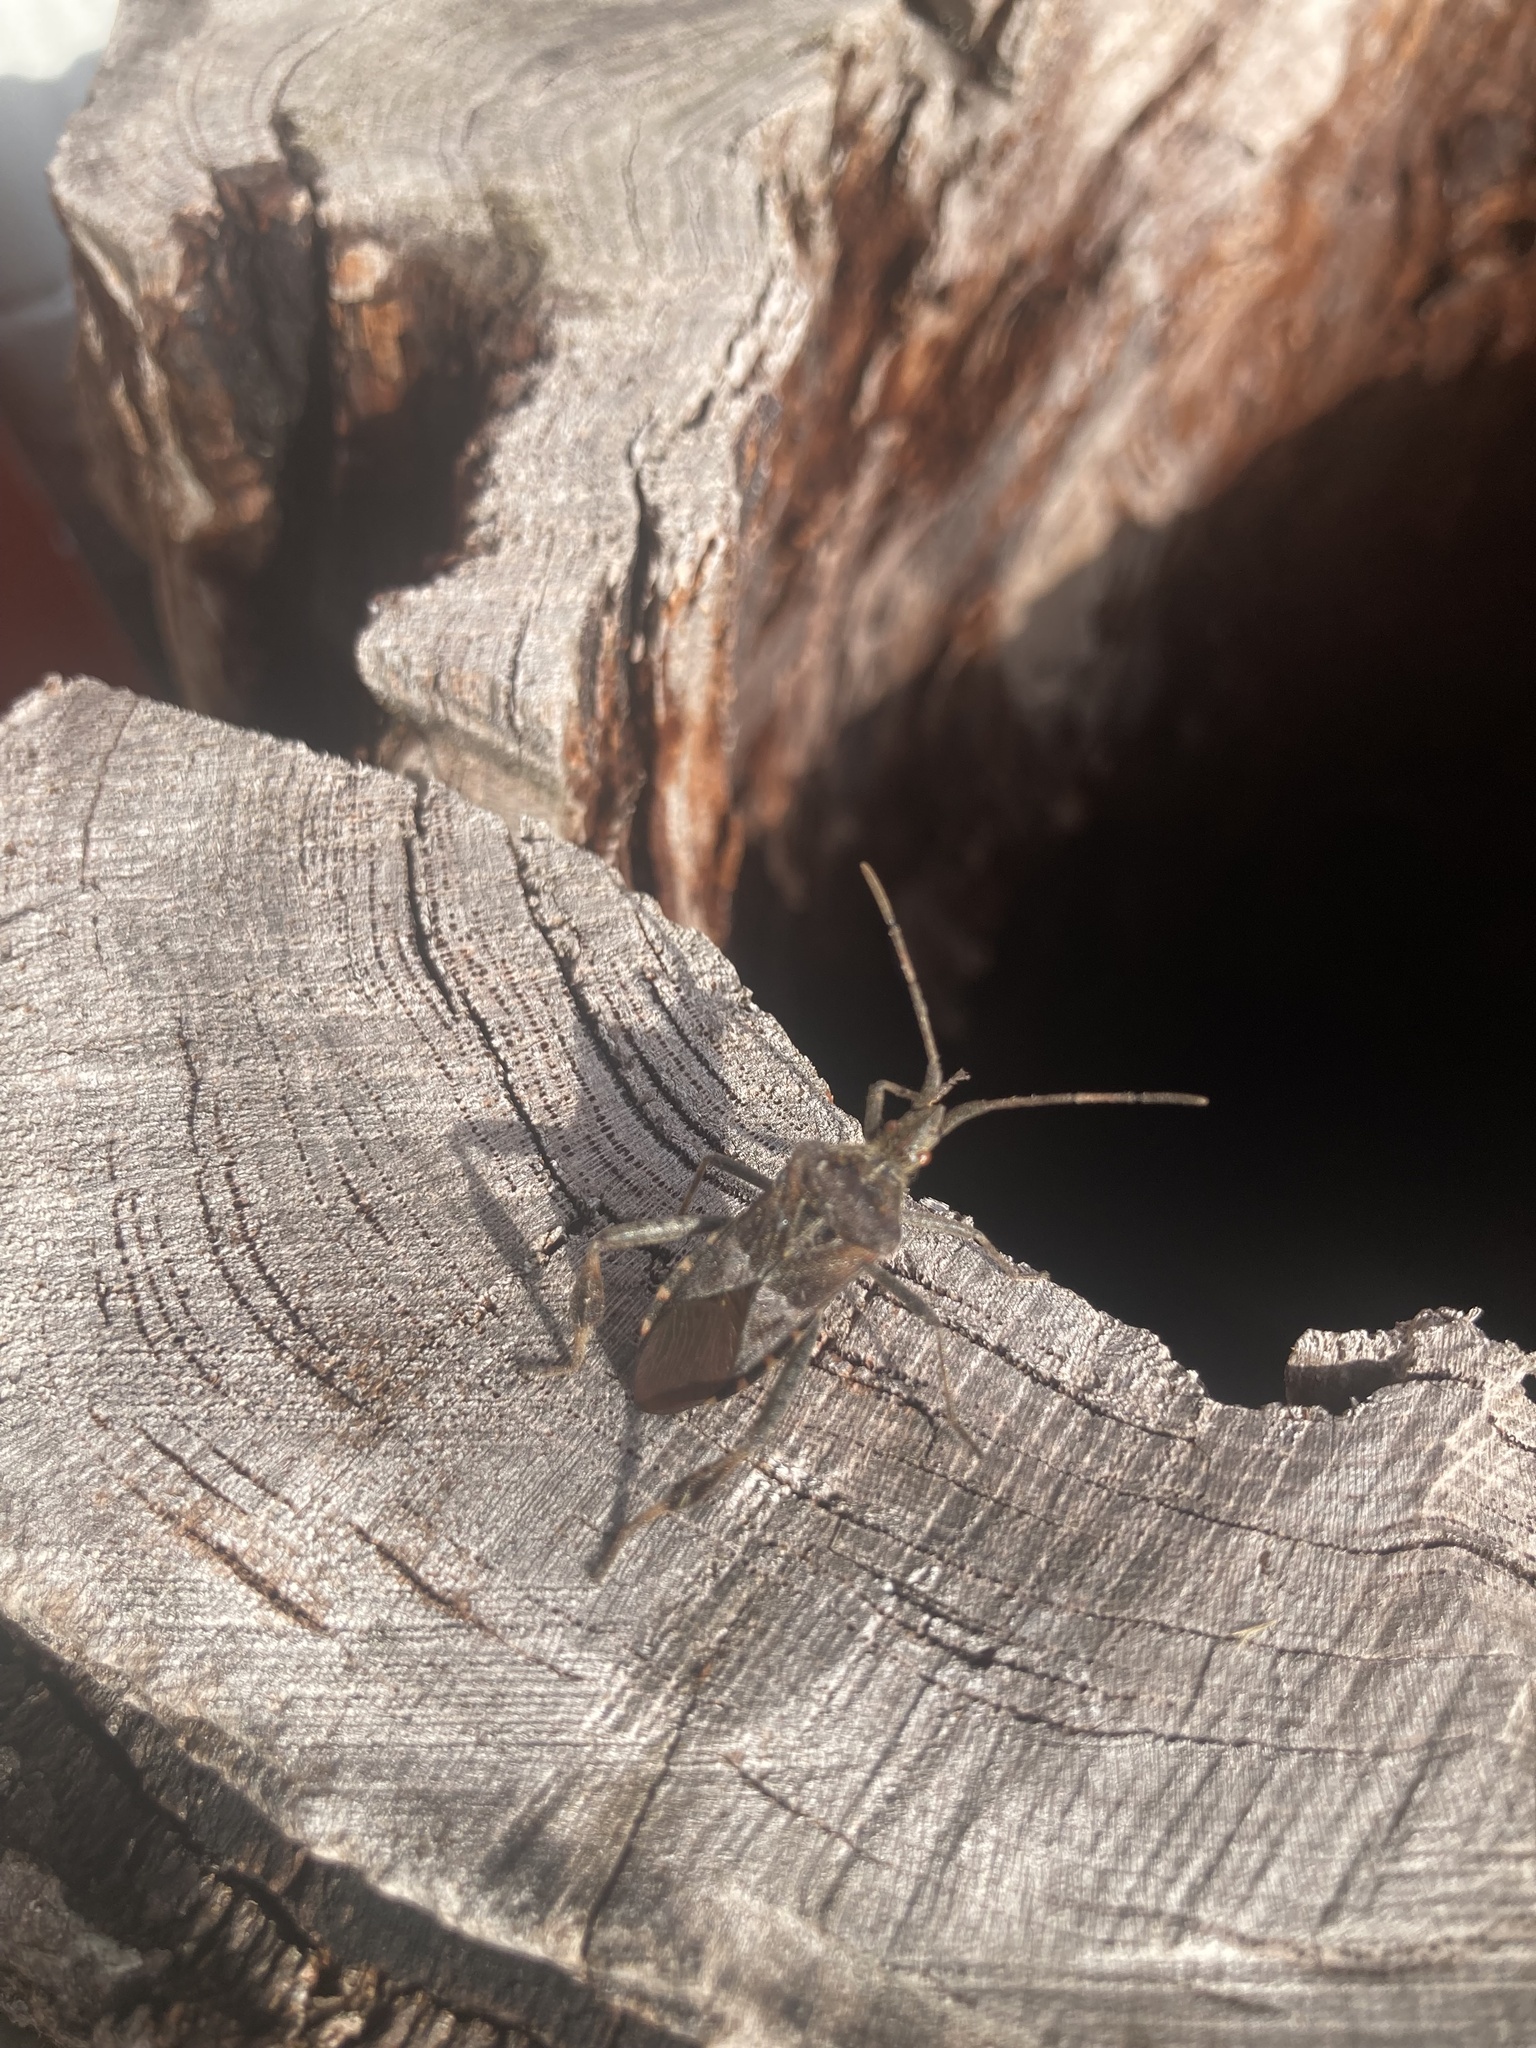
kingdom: Animalia
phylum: Arthropoda
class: Insecta
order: Hemiptera
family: Coreidae
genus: Leptoglossus
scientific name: Leptoglossus occidentalis
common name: Western conifer-seed bug
